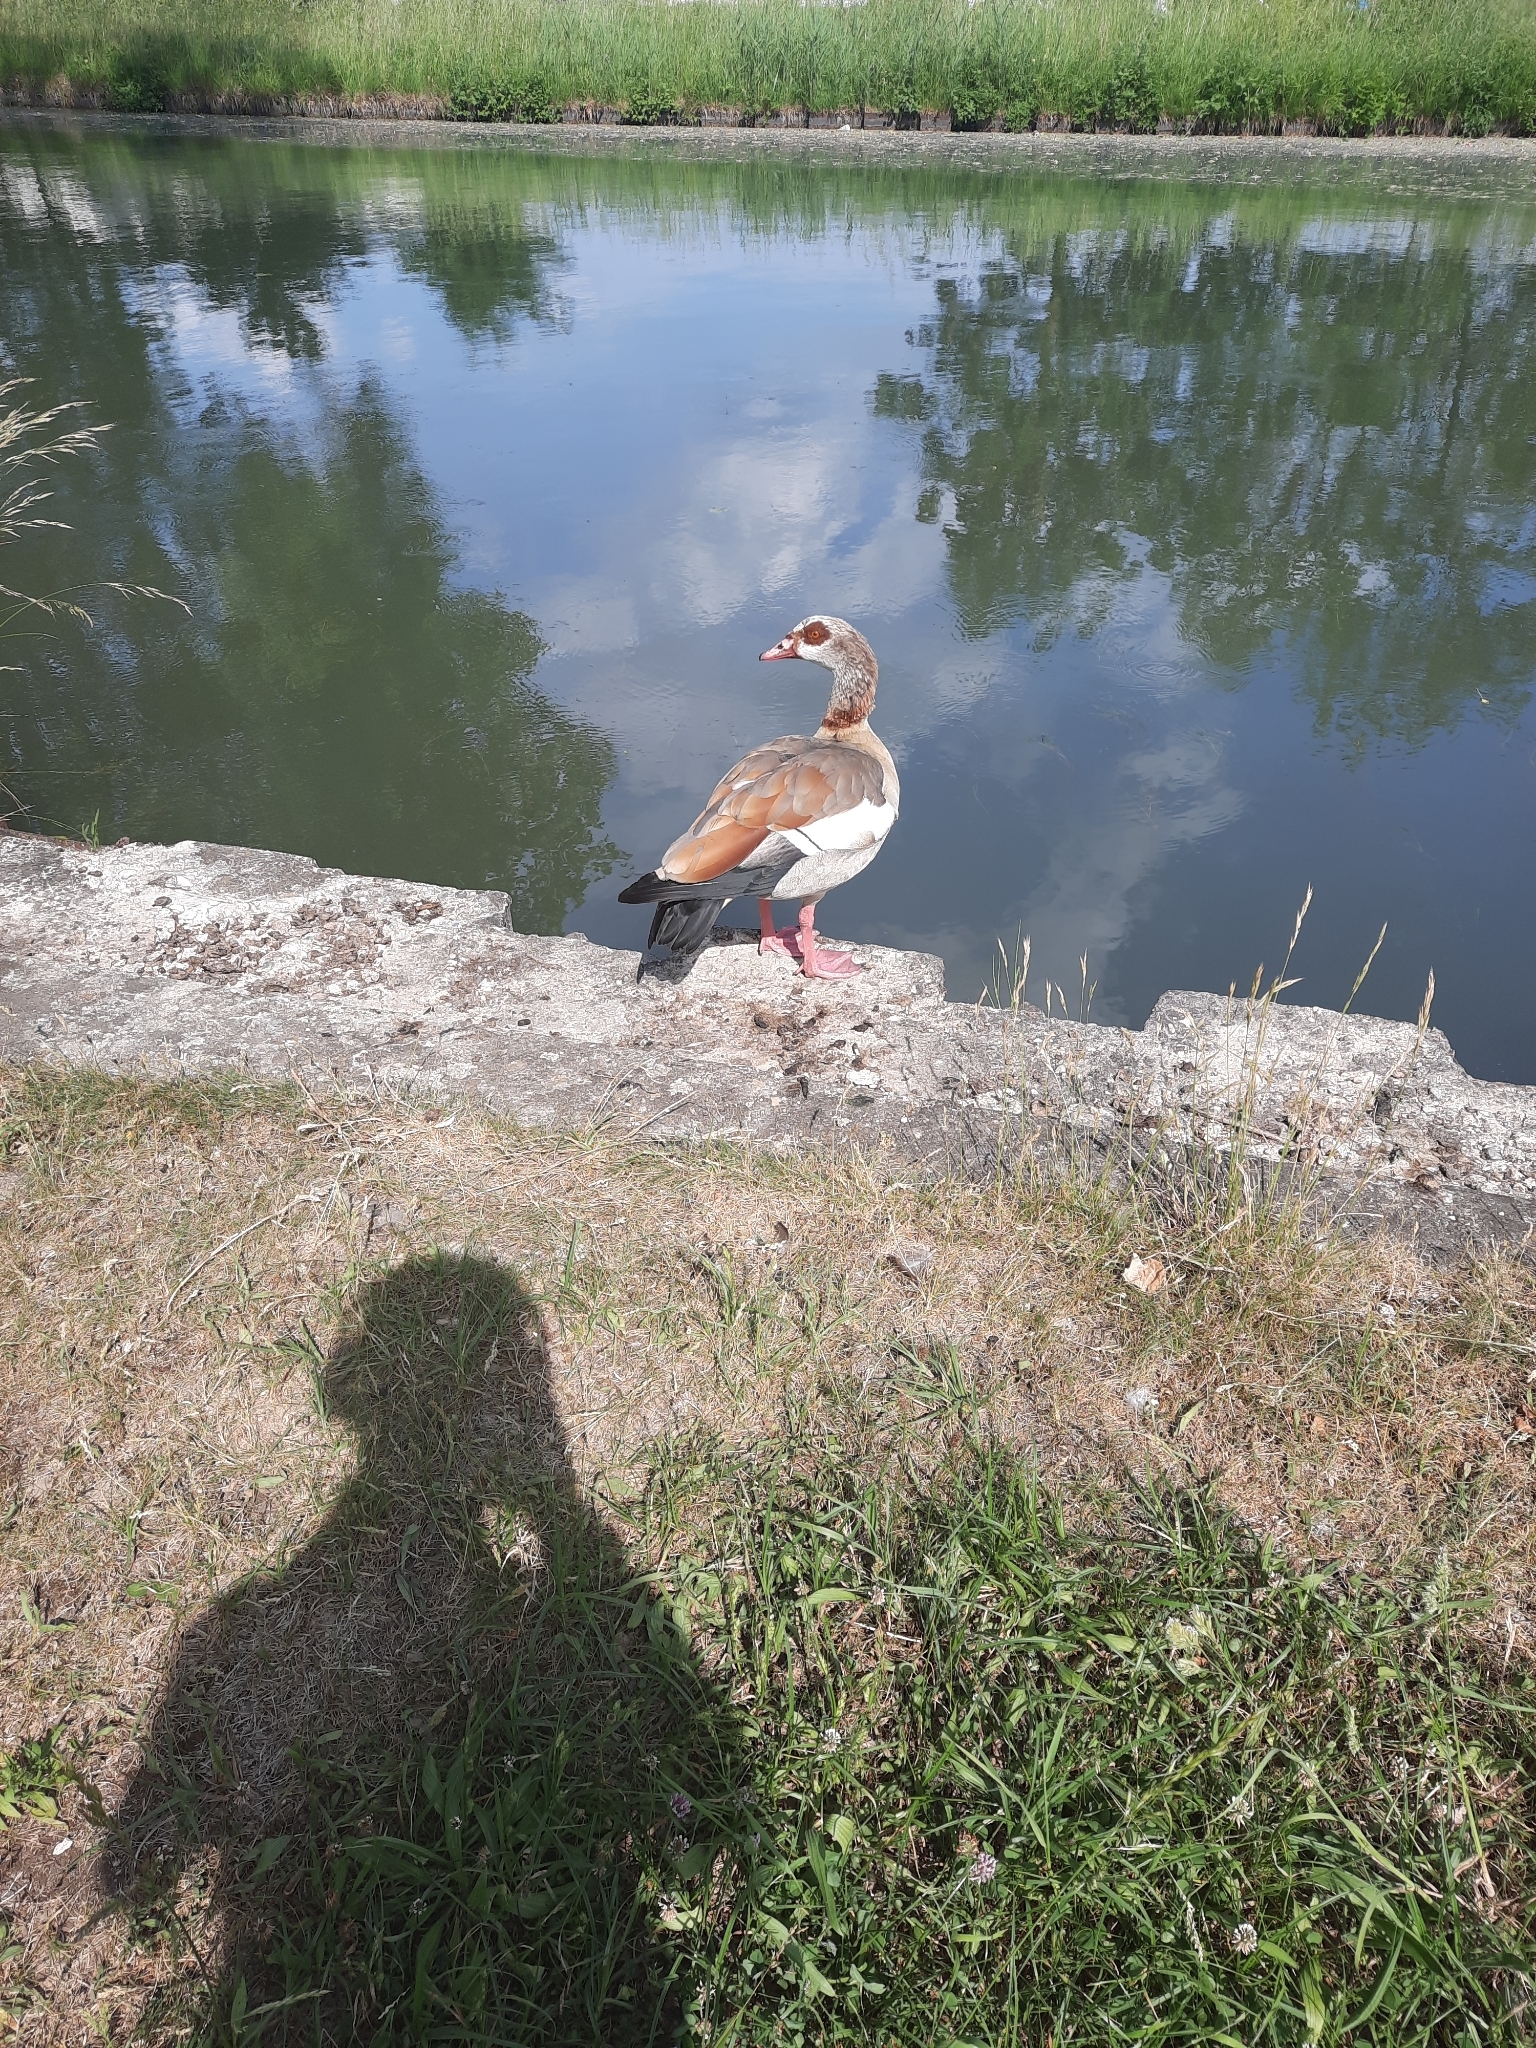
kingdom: Animalia
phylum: Chordata
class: Aves
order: Anseriformes
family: Anatidae
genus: Alopochen
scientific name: Alopochen aegyptiaca
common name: Egyptian goose
